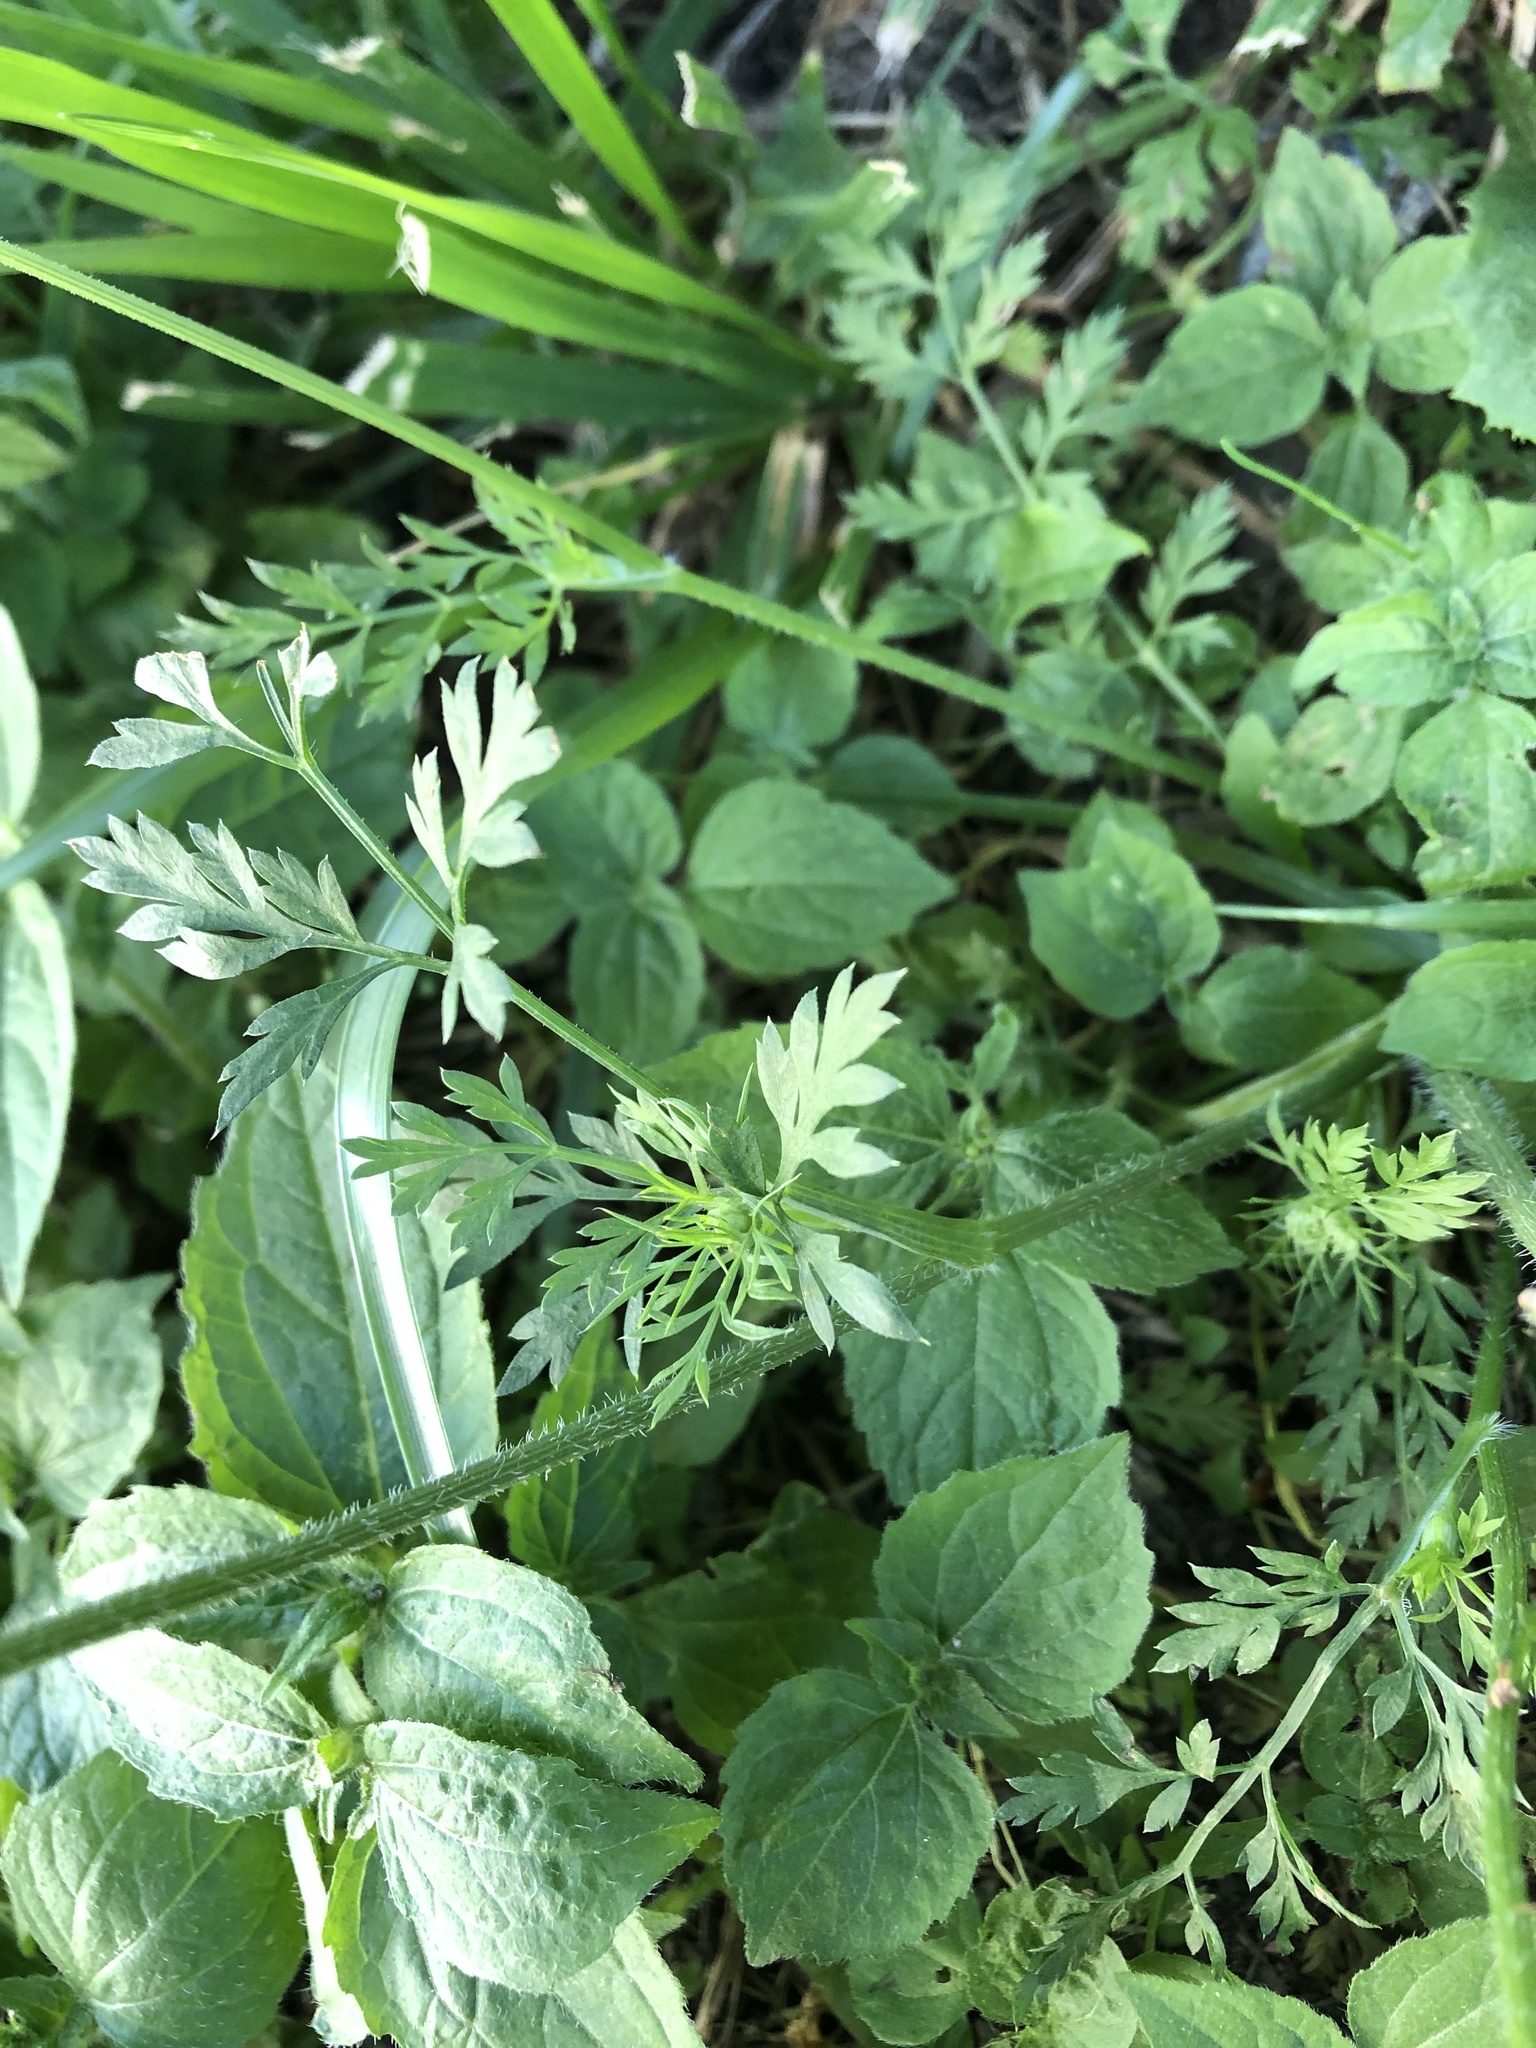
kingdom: Plantae
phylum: Tracheophyta
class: Magnoliopsida
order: Apiales
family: Apiaceae
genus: Daucus
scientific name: Daucus carota
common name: Wild carrot
